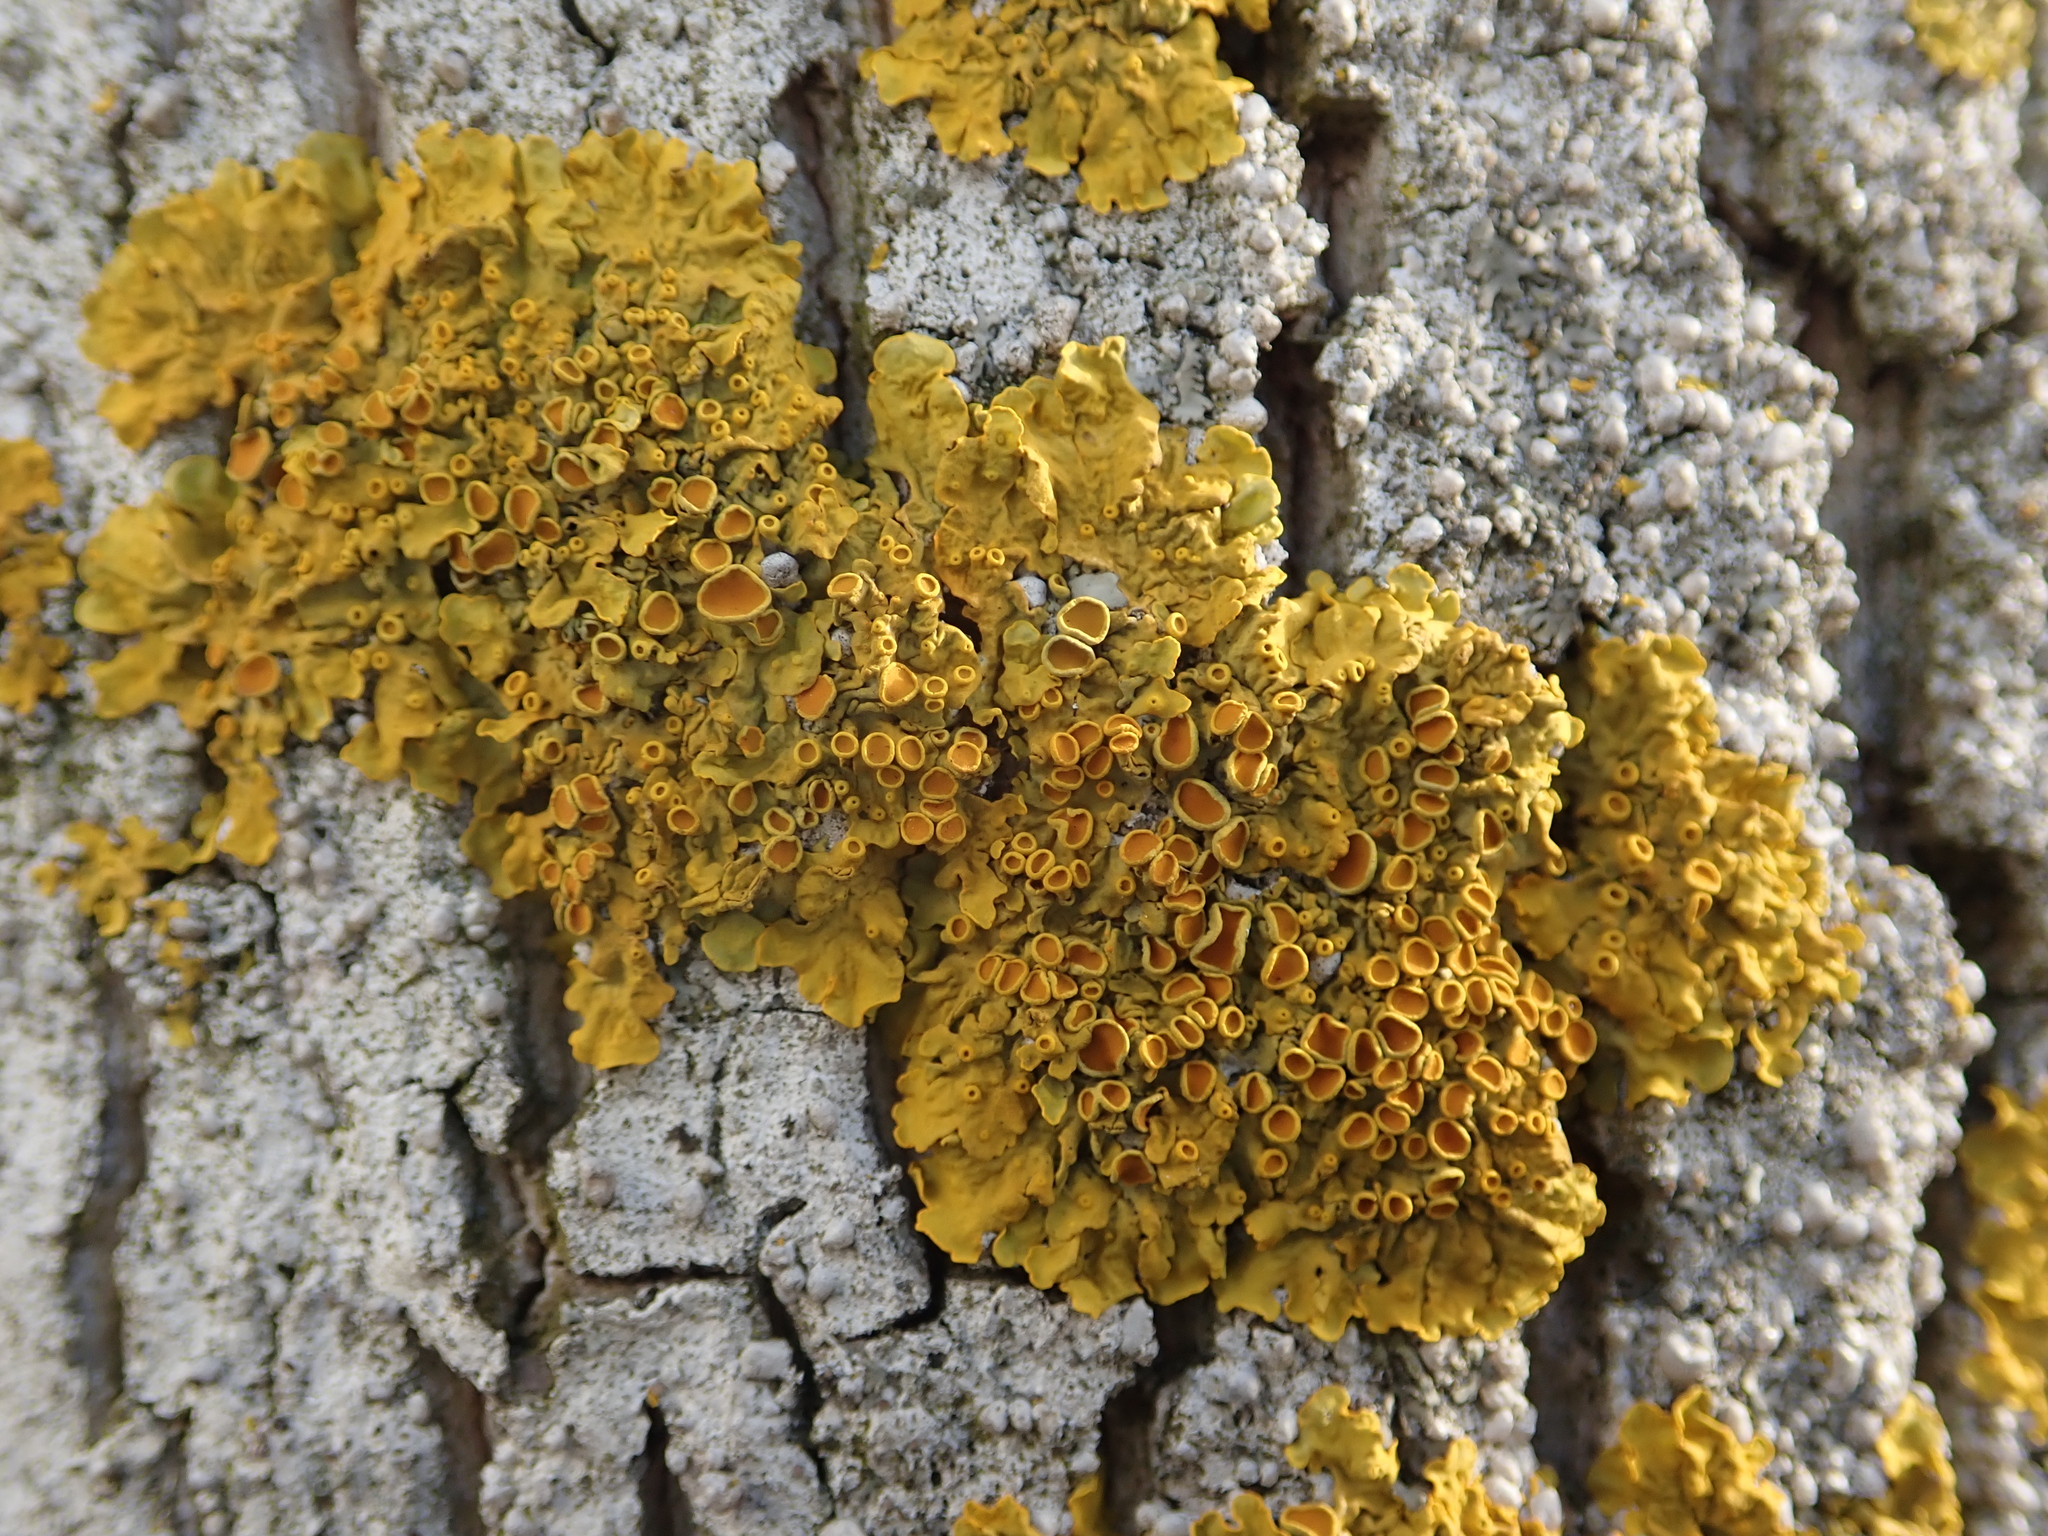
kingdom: Fungi
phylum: Ascomycota
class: Lecanoromycetes
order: Teloschistales
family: Teloschistaceae
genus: Xanthoria
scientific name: Xanthoria parietina
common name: Common orange lichen
